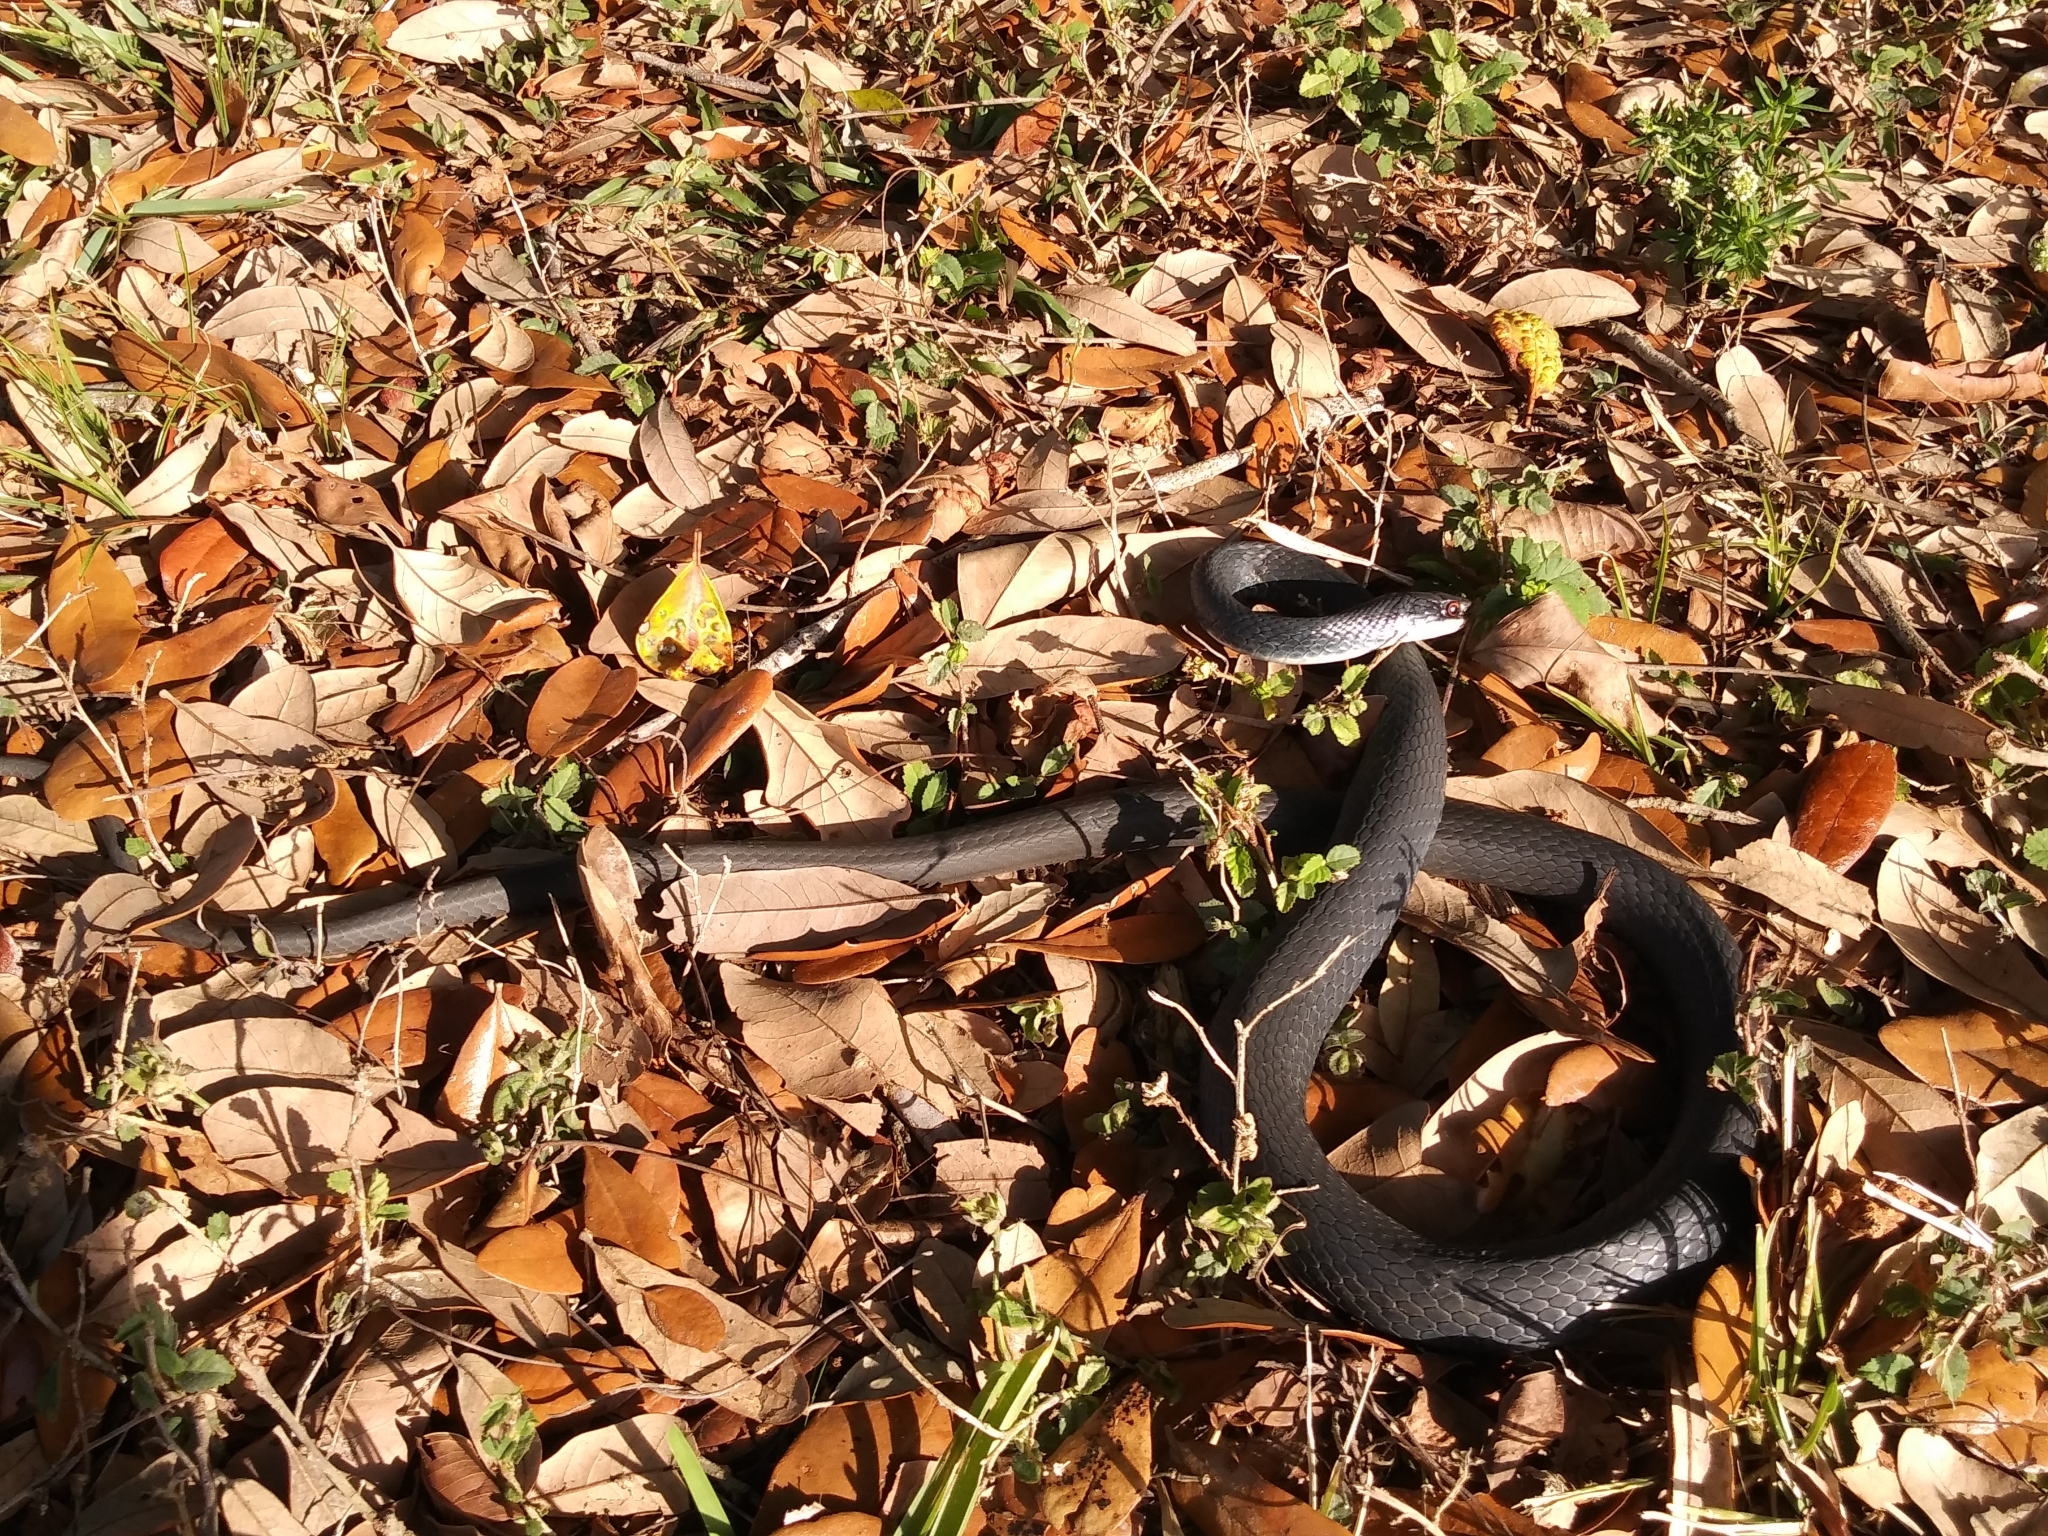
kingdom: Animalia
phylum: Chordata
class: Squamata
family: Colubridae
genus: Coluber
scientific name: Coluber constrictor
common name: Eastern racer
